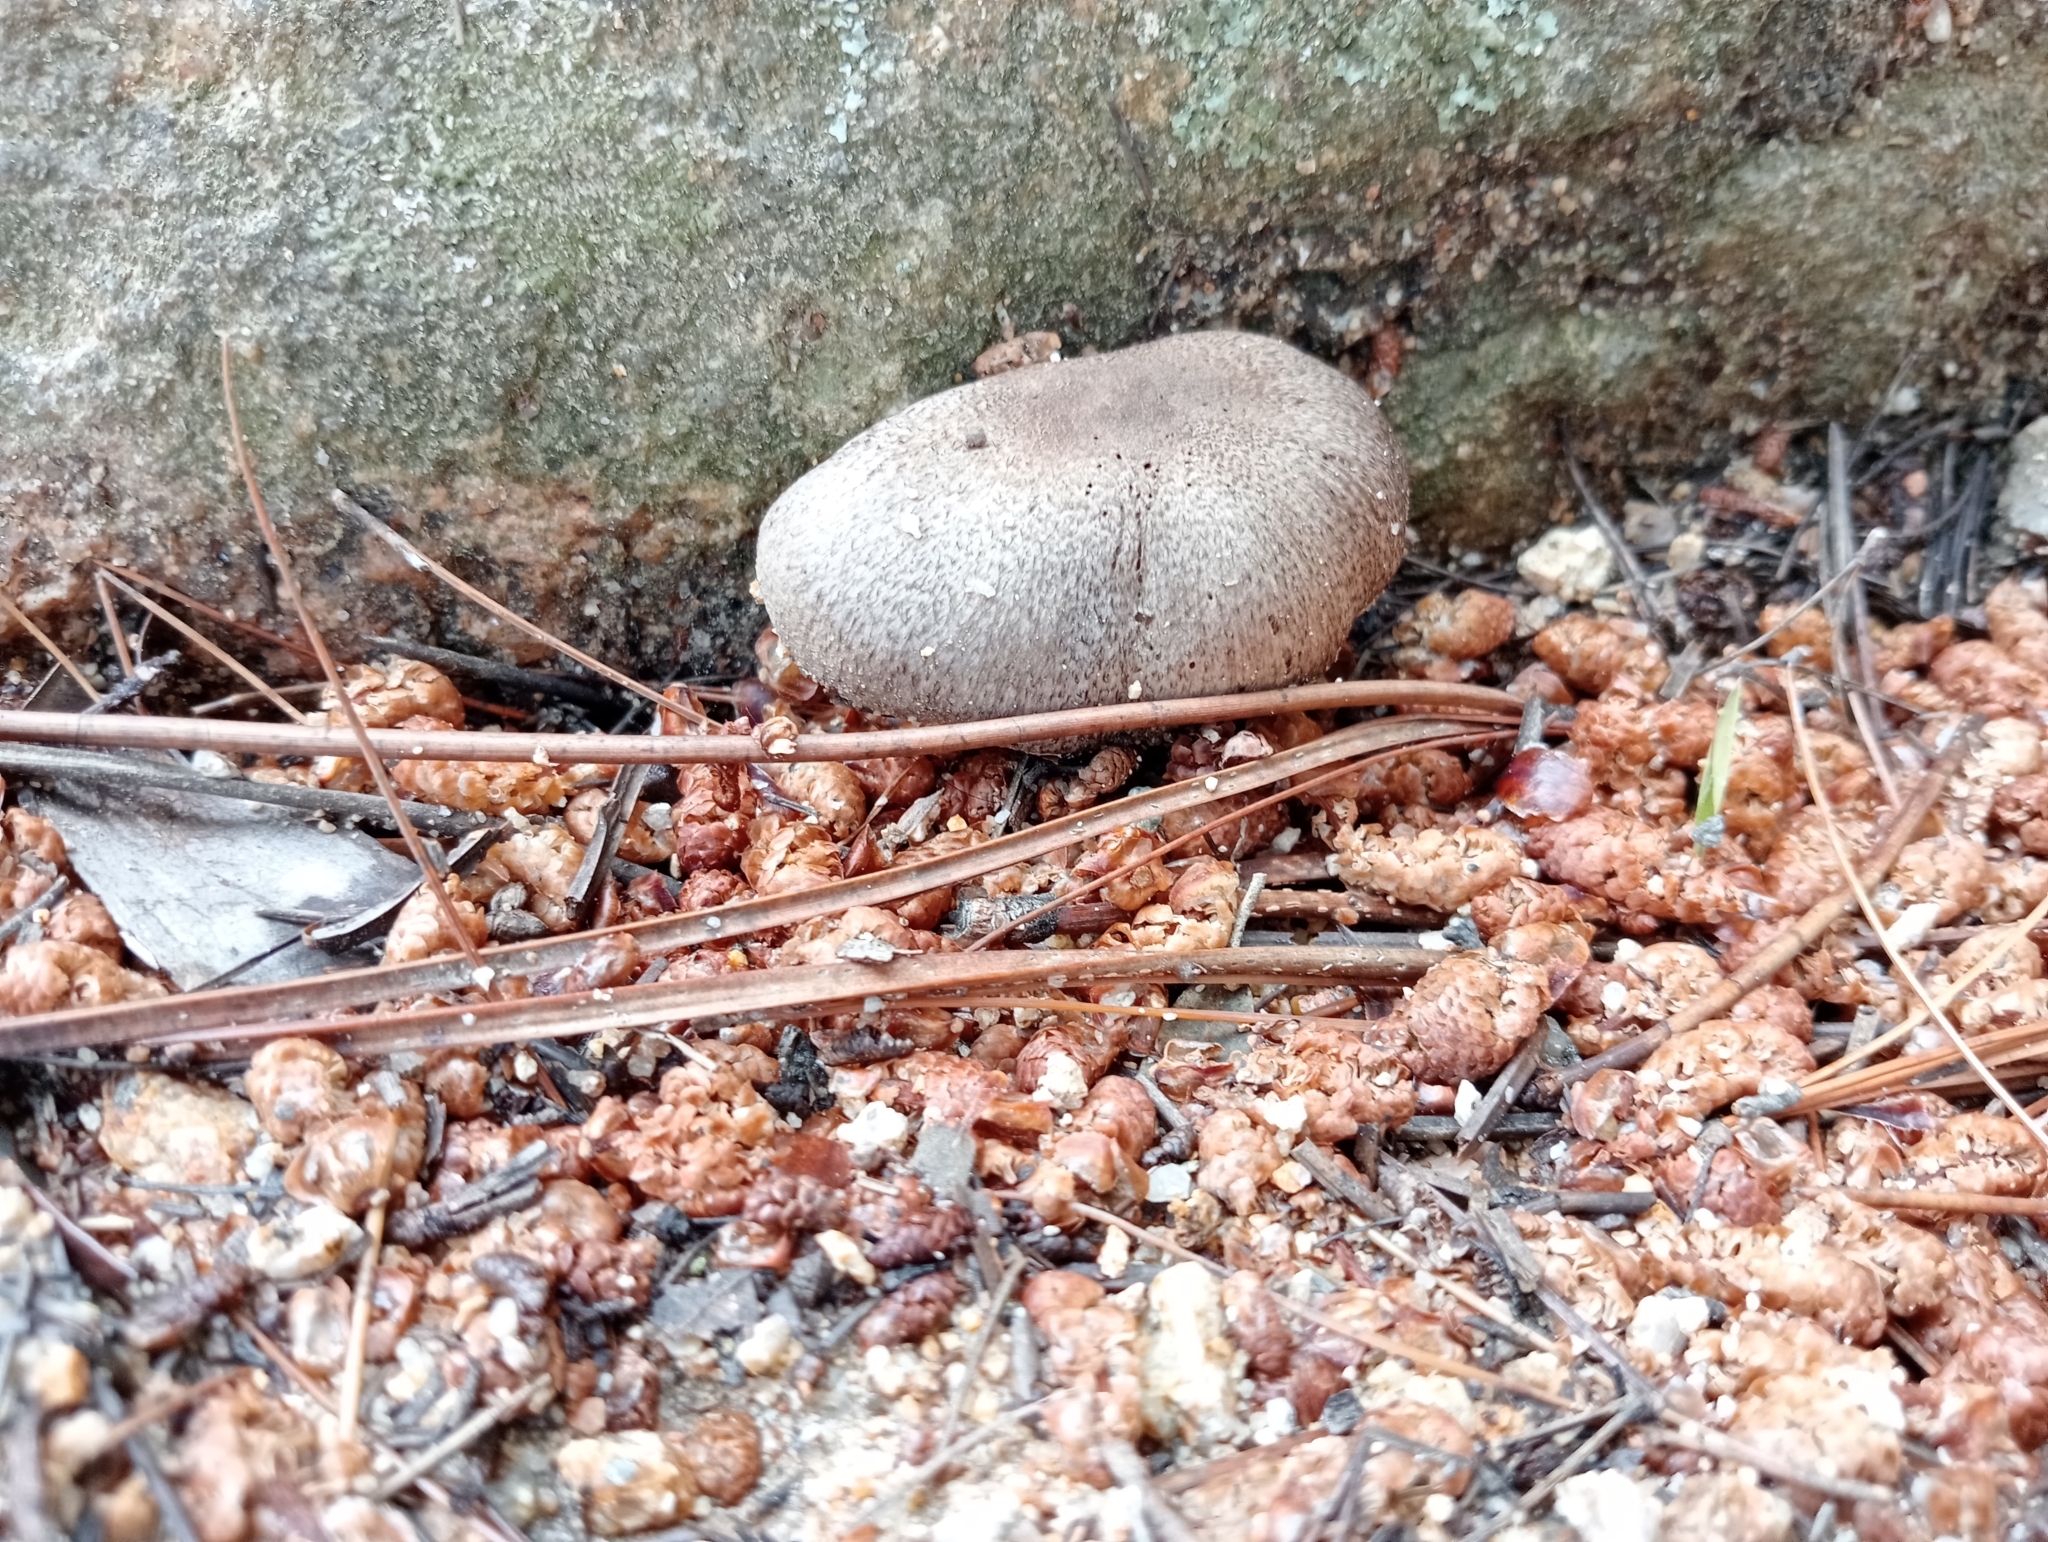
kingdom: Fungi
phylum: Basidiomycota
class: Agaricomycetes
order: Agaricales
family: Tricholomataceae
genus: Tricholoma
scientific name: Tricholoma scalpturatum
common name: Yellowing knight
